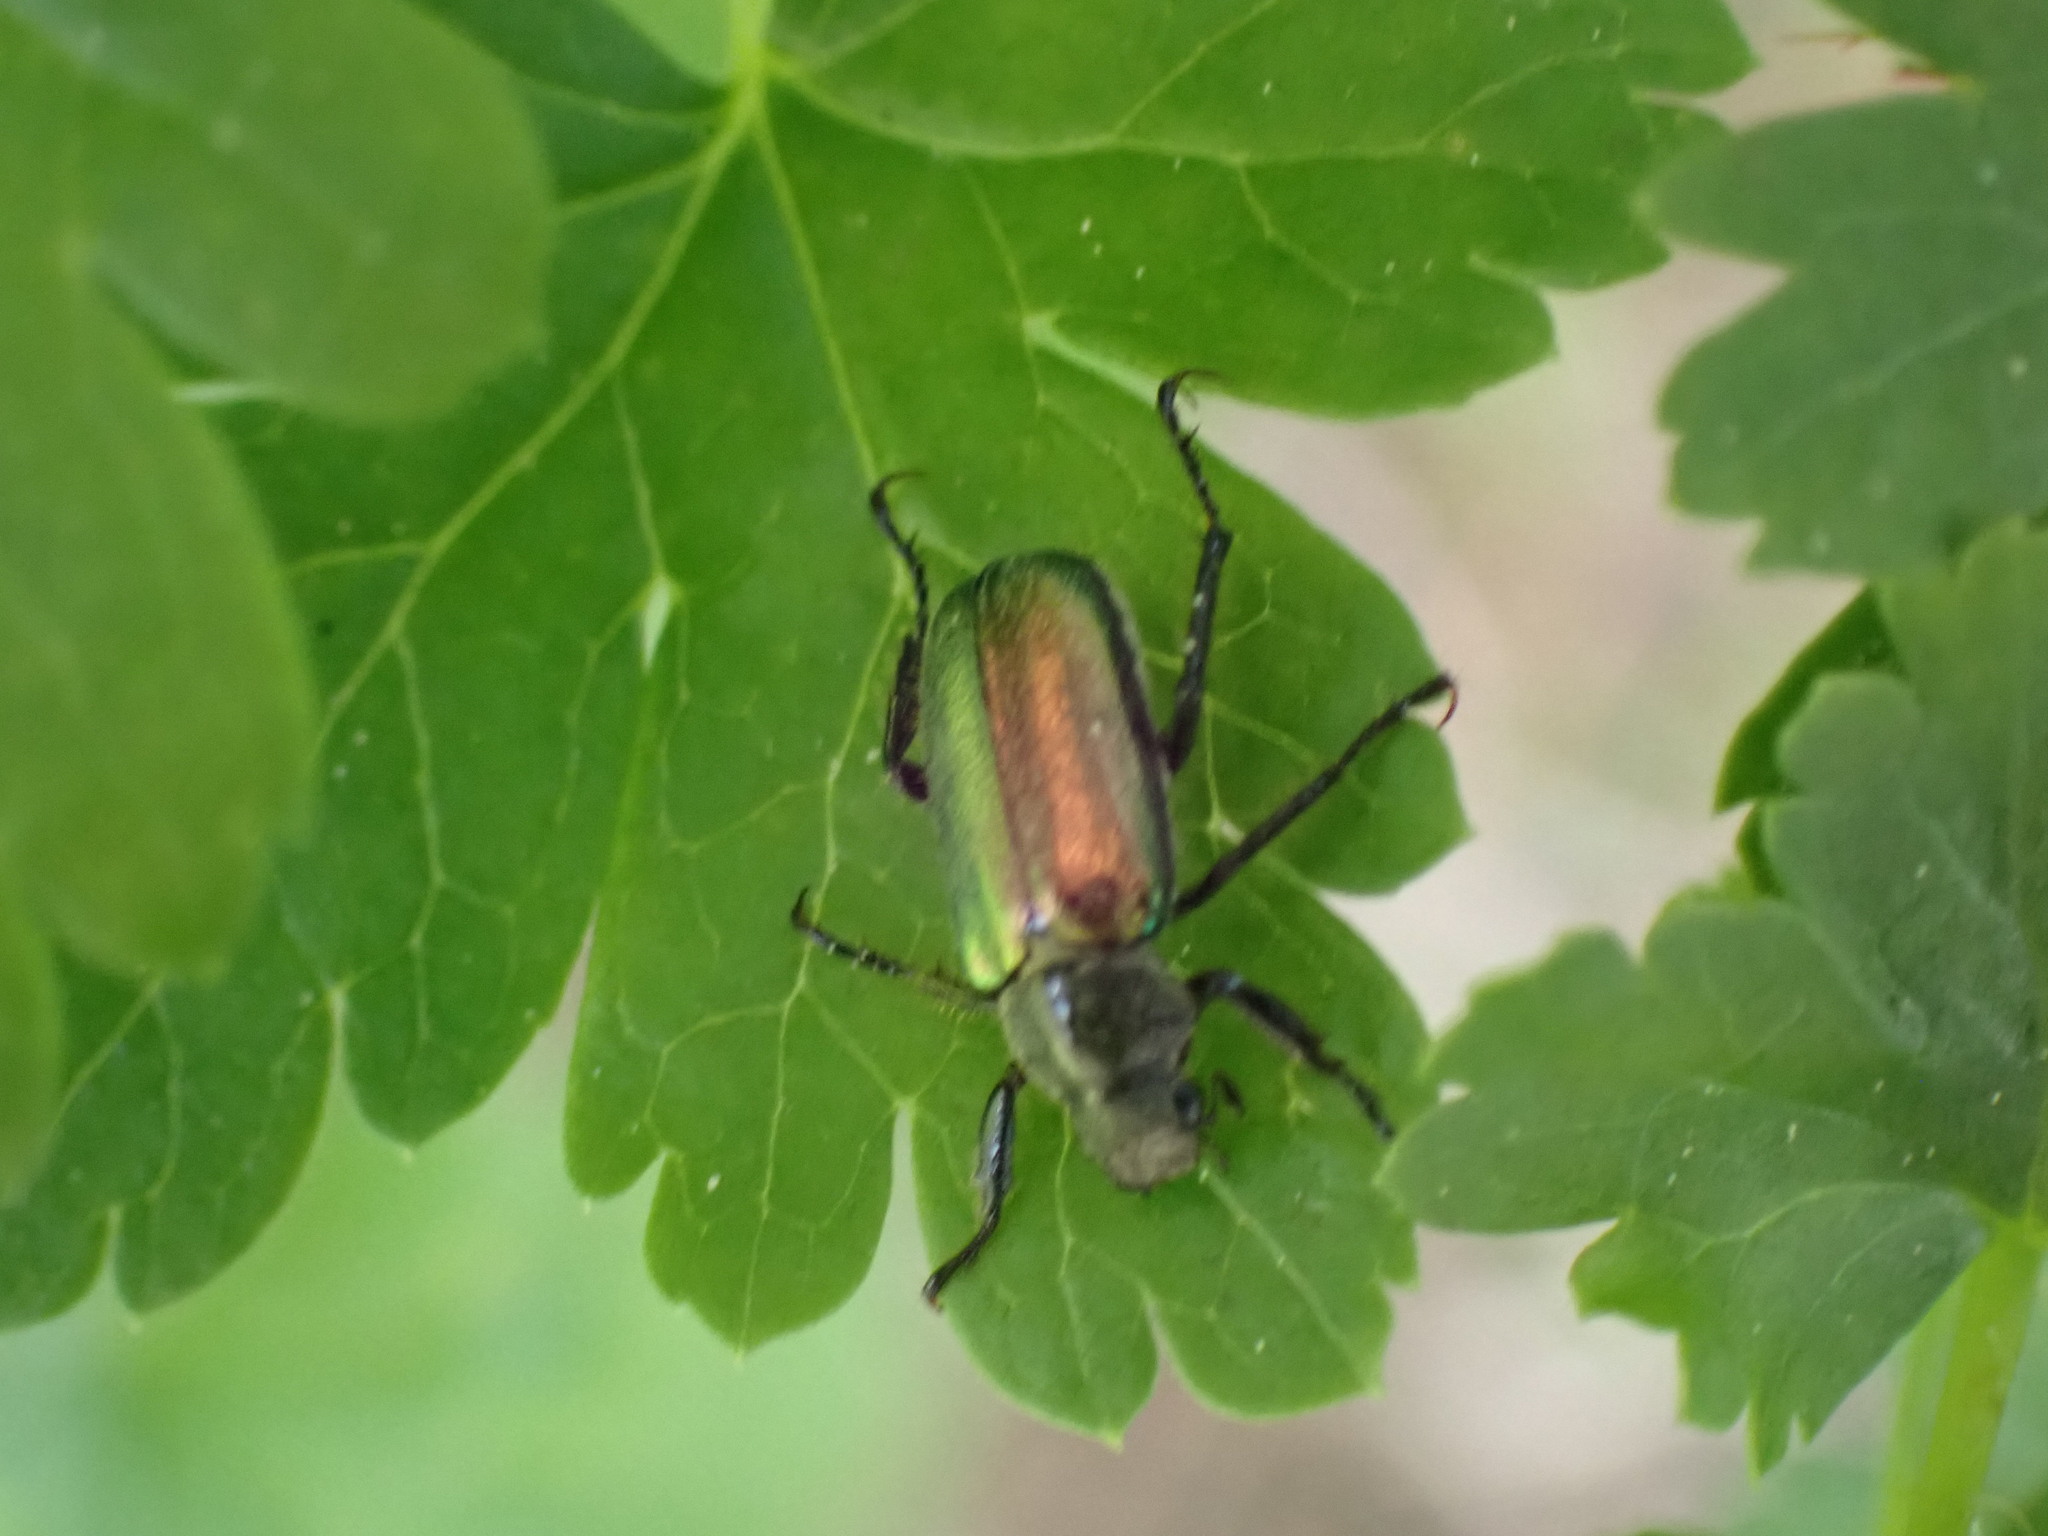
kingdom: Animalia
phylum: Arthropoda
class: Insecta
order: Coleoptera
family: Scarabaeidae
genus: Dichelonyx
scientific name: Dichelonyx backii
